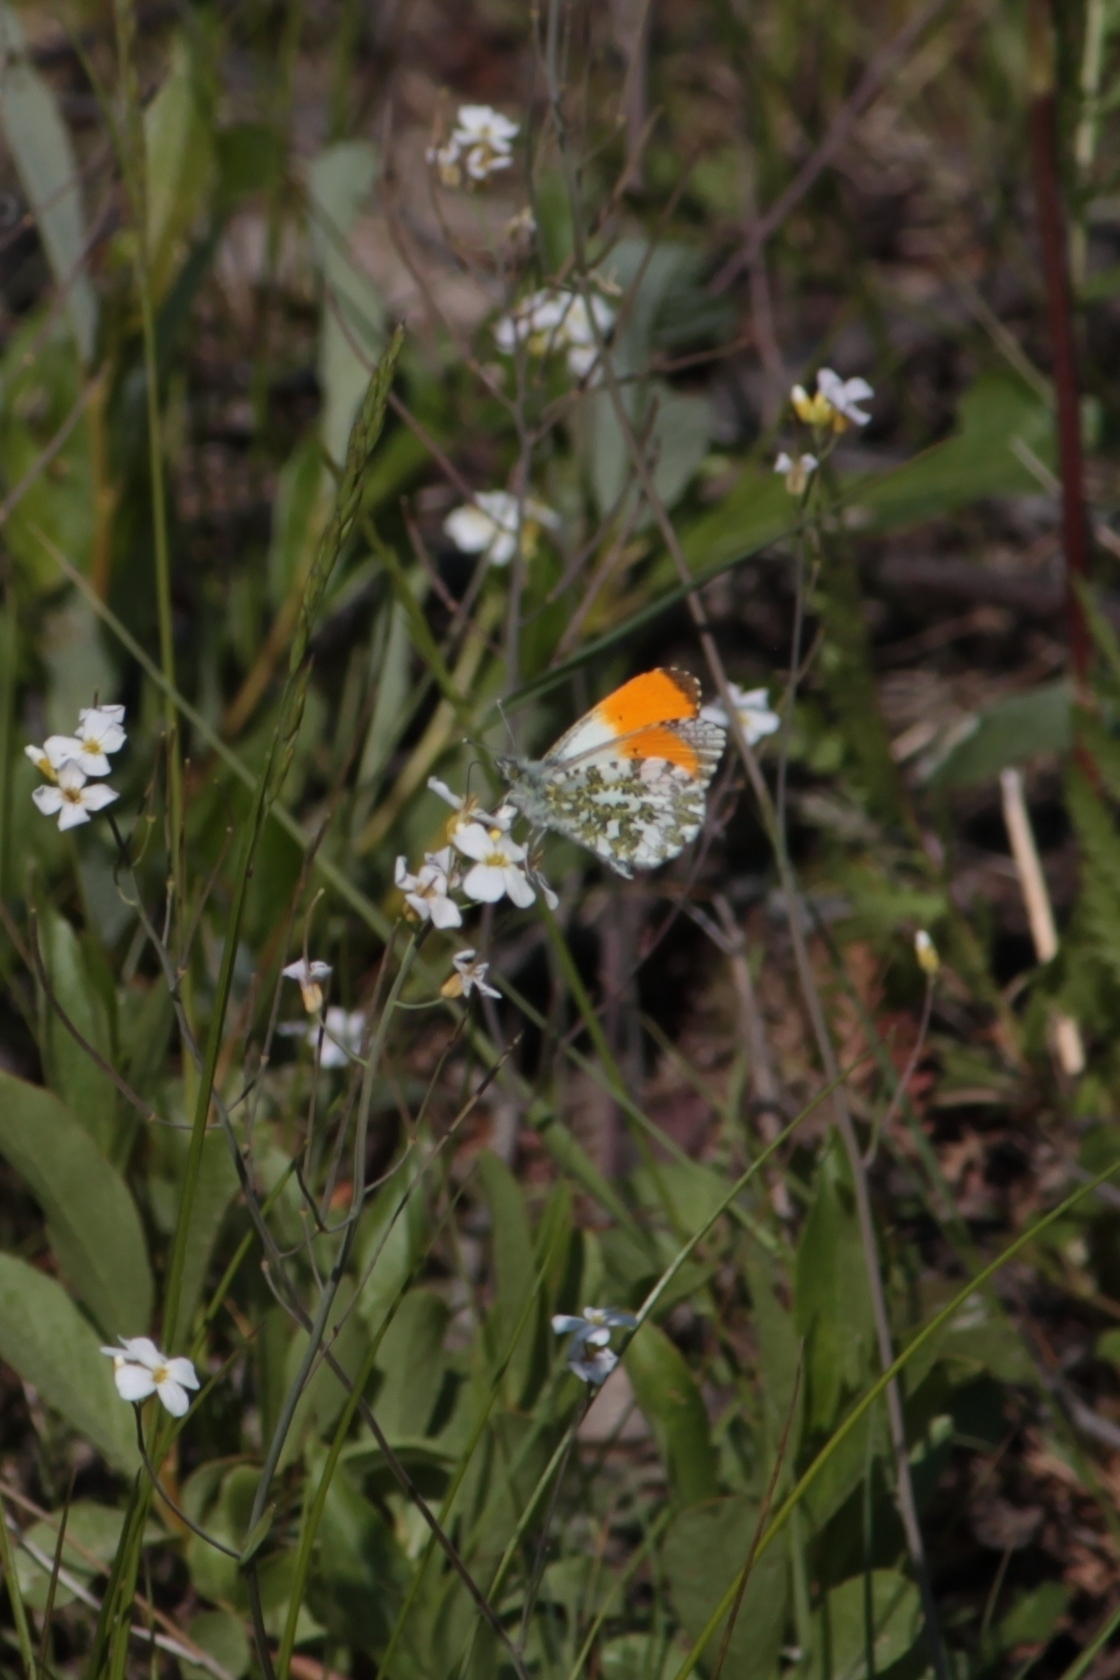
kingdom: Animalia
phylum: Arthropoda
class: Insecta
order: Lepidoptera
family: Pieridae
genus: Anthocharis
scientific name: Anthocharis cardamines
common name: Orange-tip
